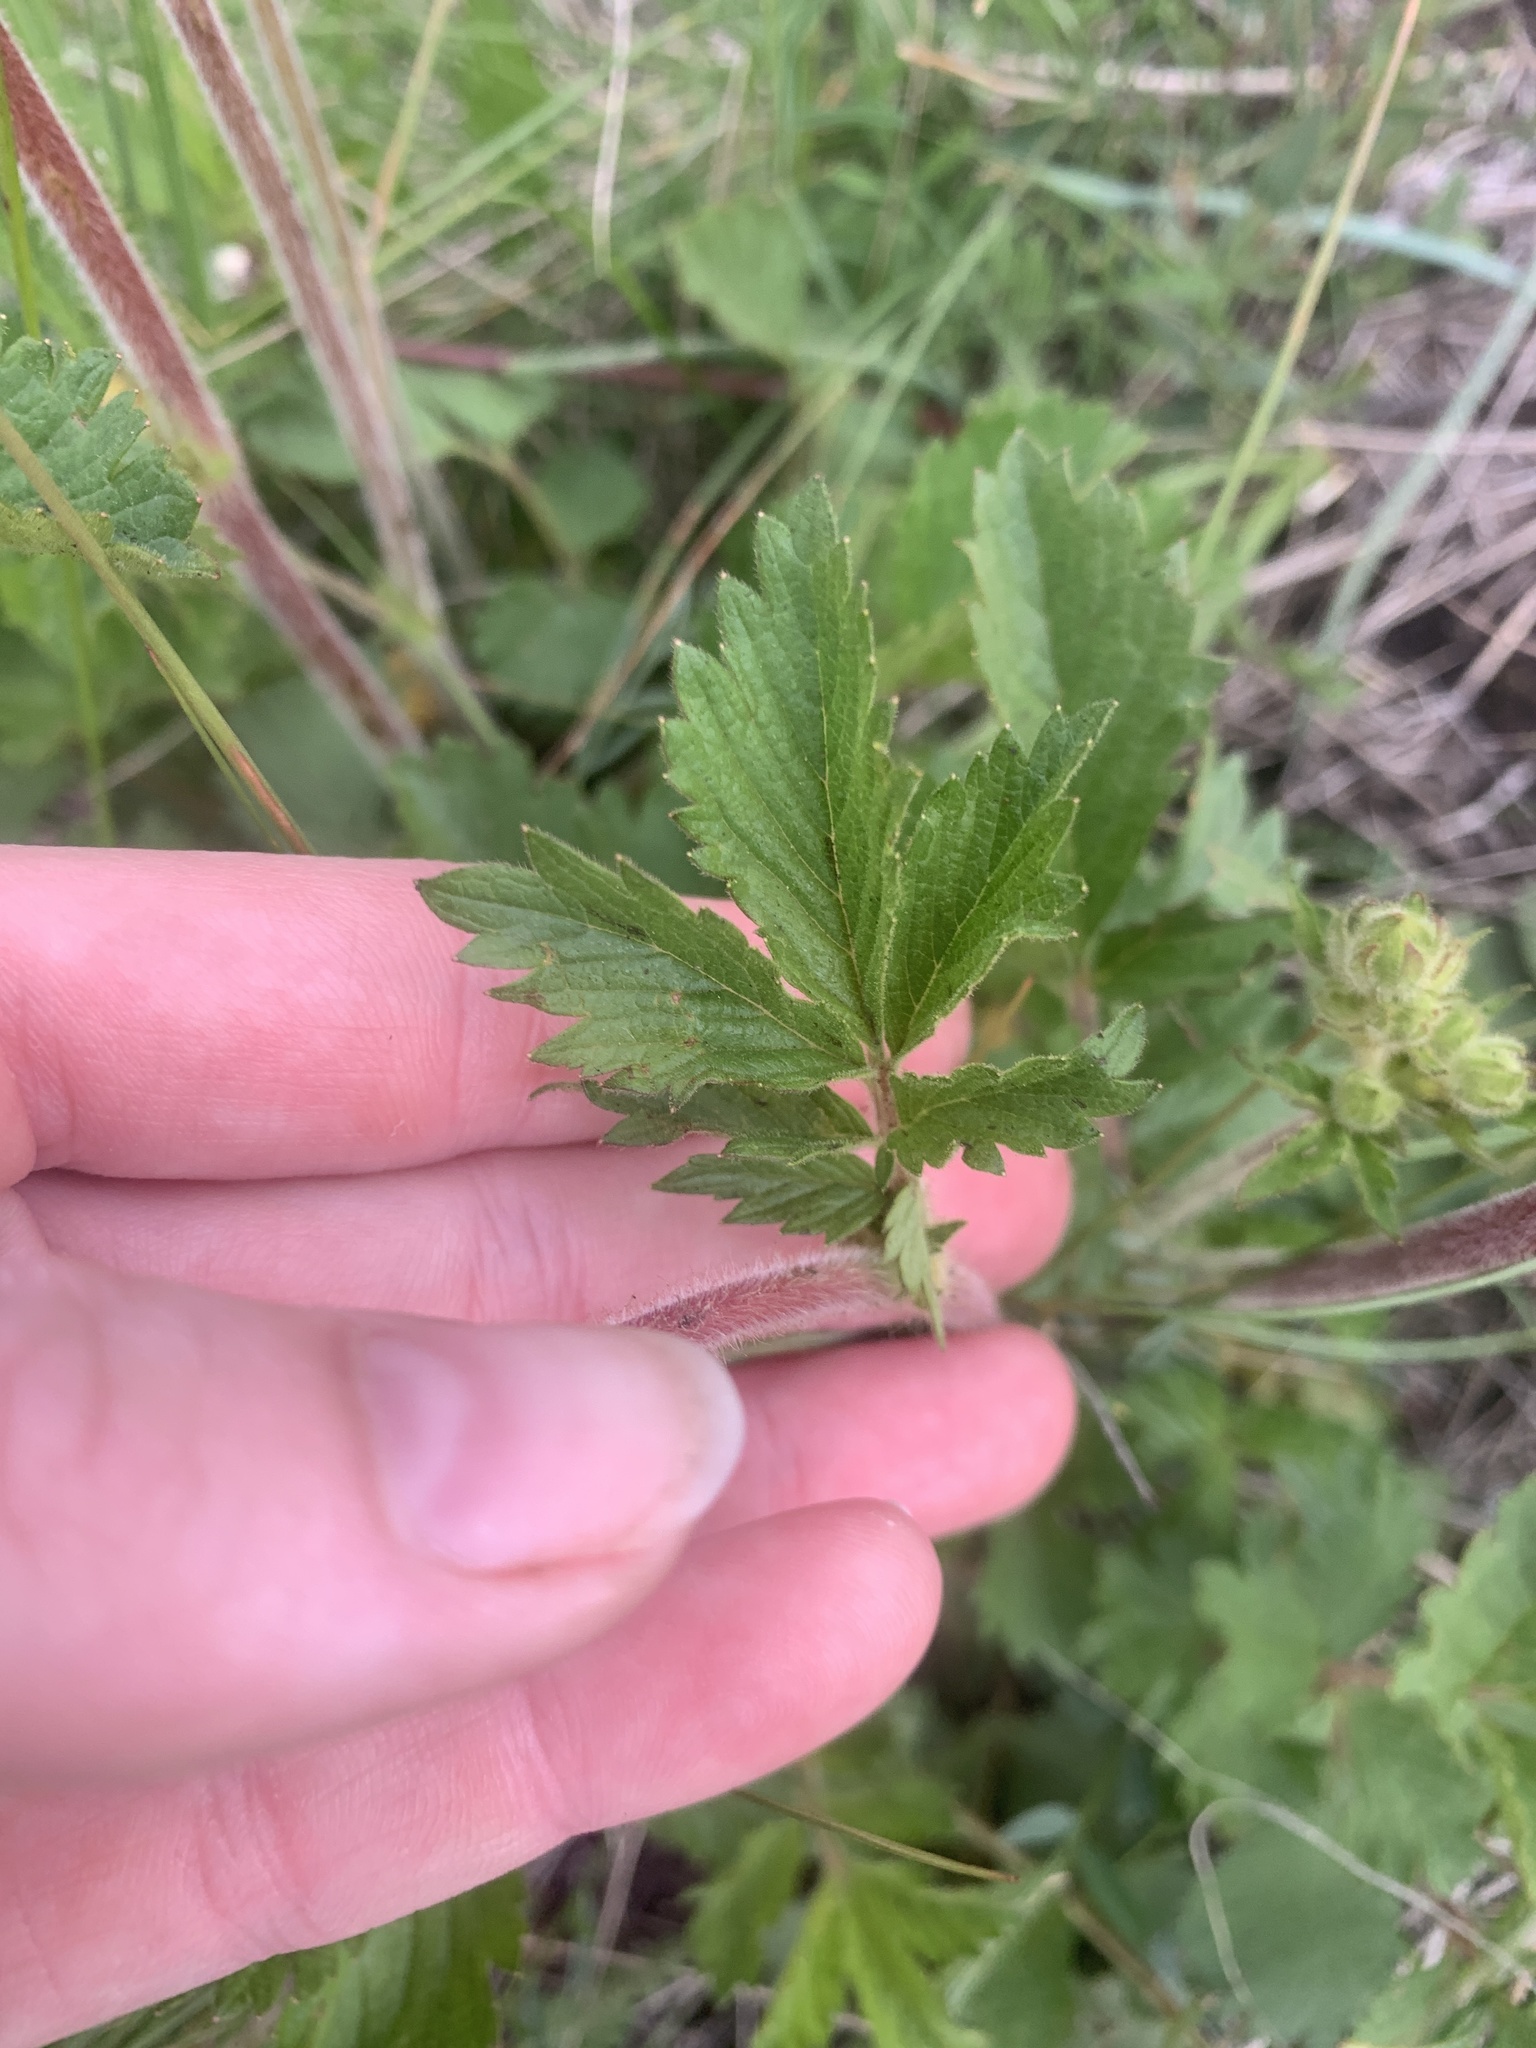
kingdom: Plantae
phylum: Tracheophyta
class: Magnoliopsida
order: Rosales
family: Rosaceae
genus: Drymocallis
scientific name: Drymocallis glandulosa
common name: Sticky cinquefoil
